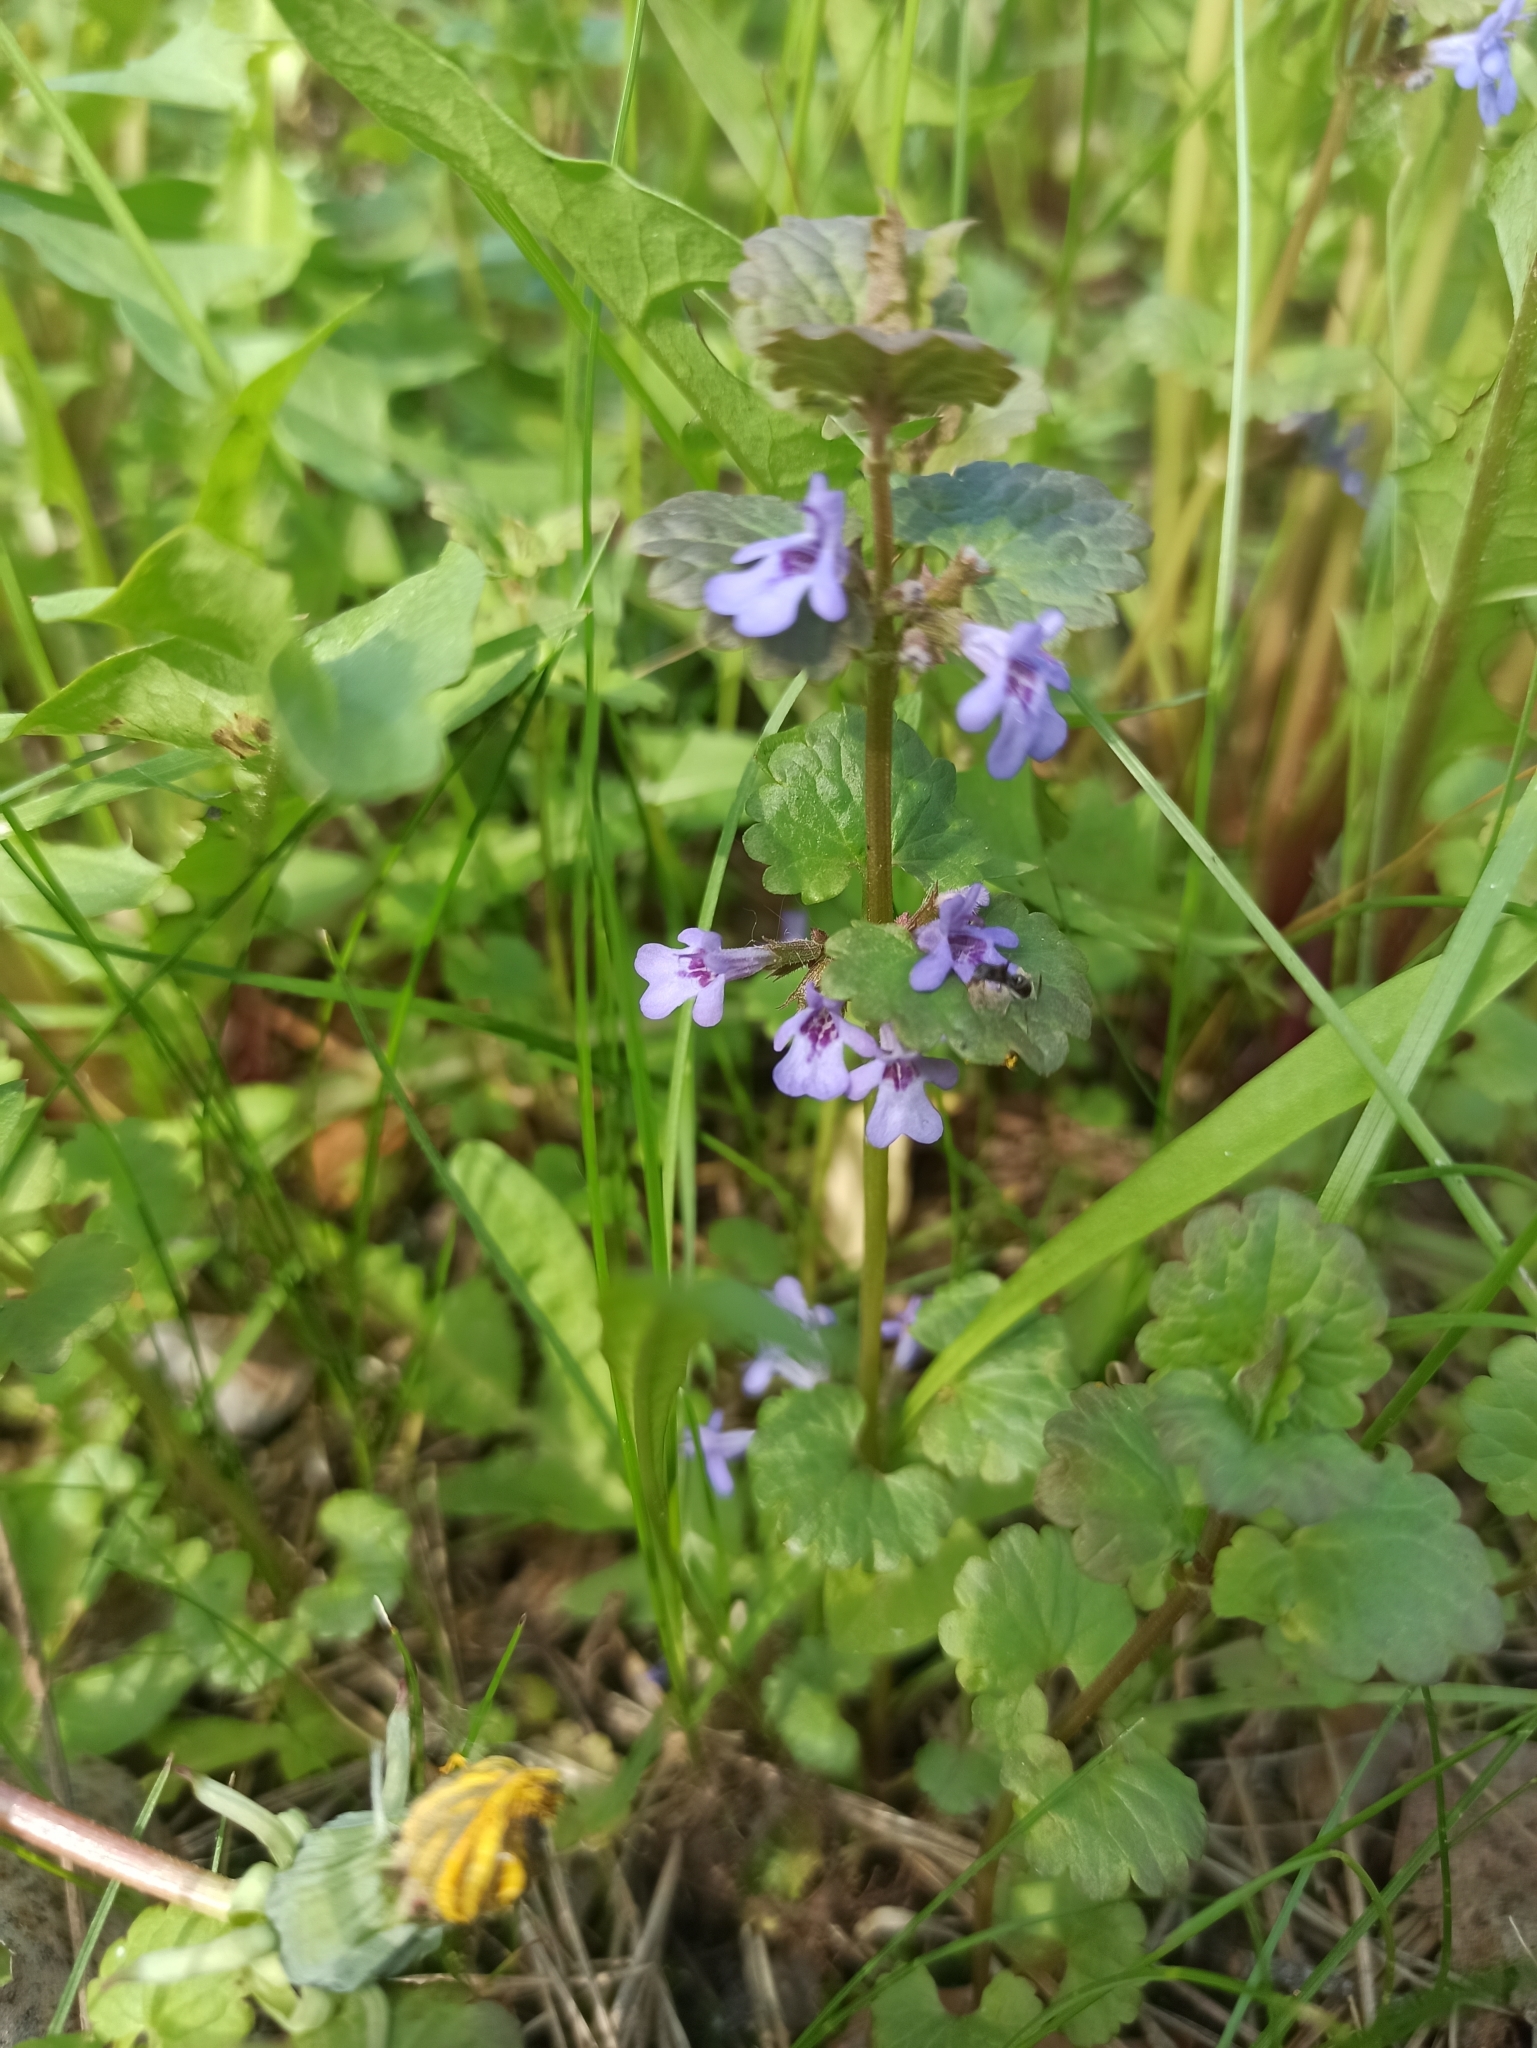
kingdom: Plantae
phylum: Tracheophyta
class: Magnoliopsida
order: Lamiales
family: Lamiaceae
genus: Glechoma
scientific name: Glechoma hederacea
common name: Ground ivy
